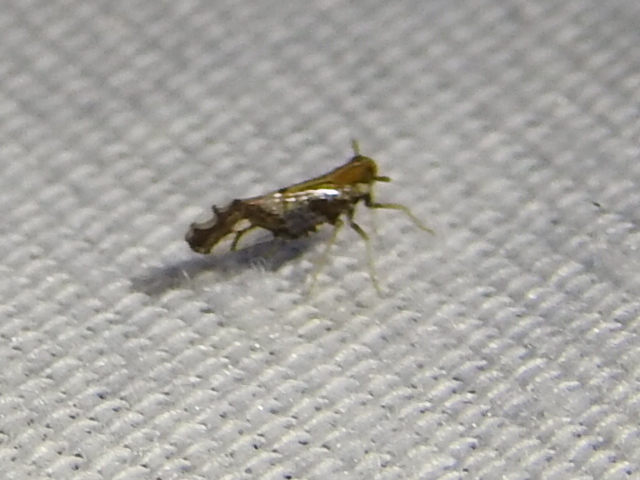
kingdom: Animalia
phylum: Arthropoda
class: Insecta
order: Hemiptera
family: Delphacidae
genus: Liburniella
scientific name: Liburniella ornata
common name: Ornate planthopper
